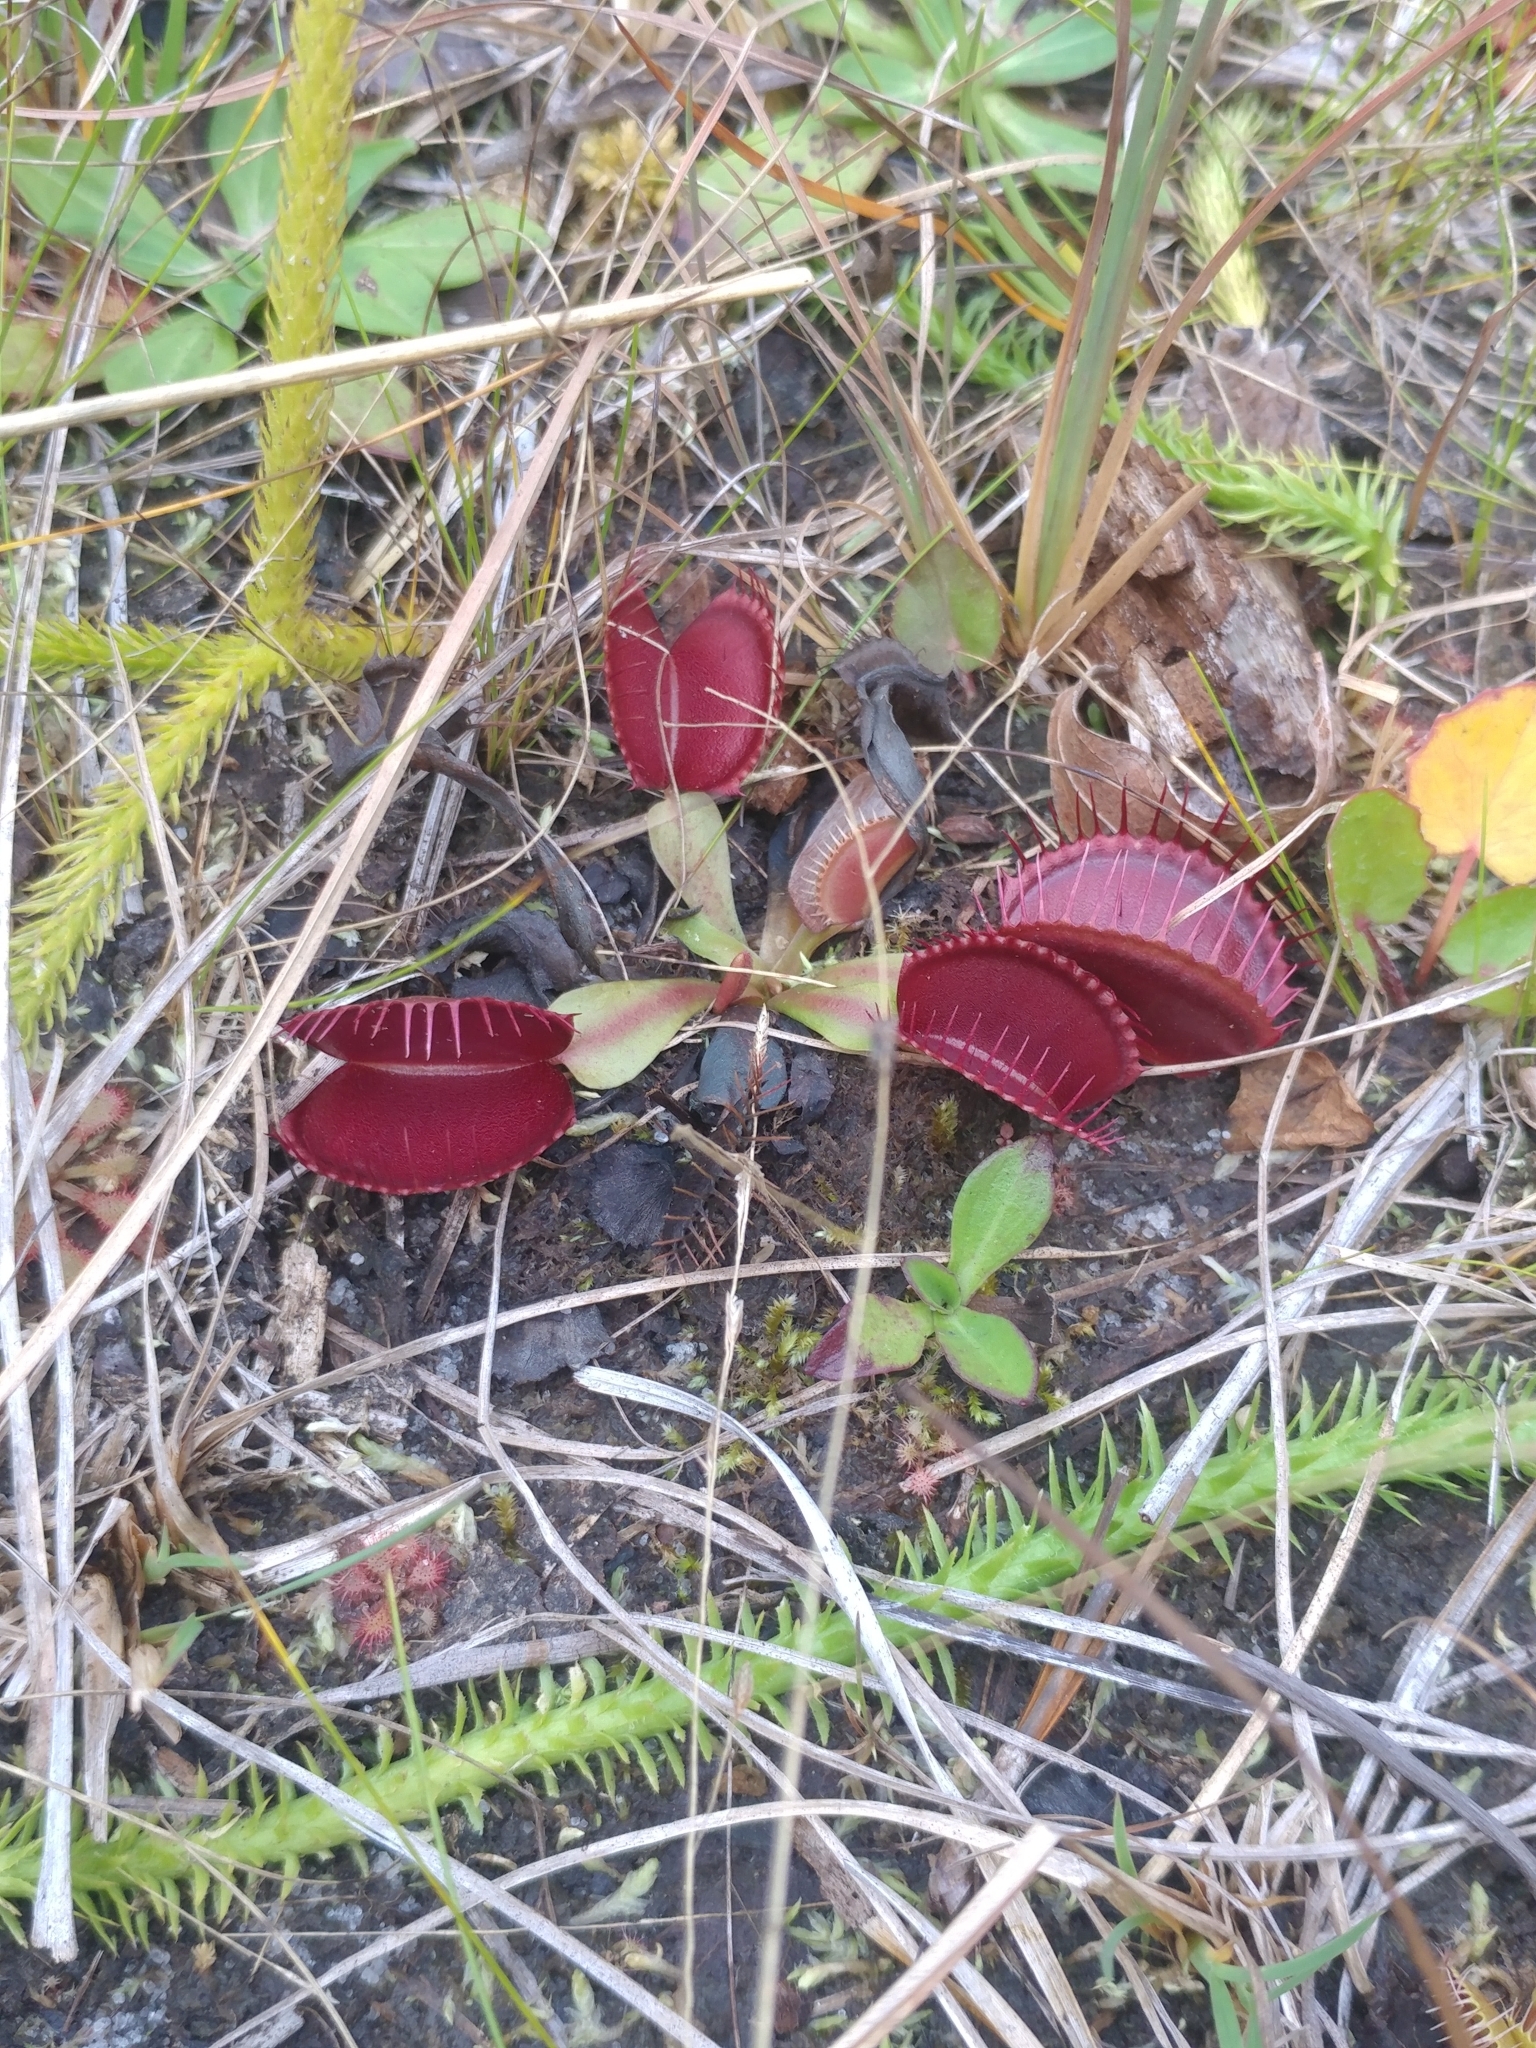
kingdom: Plantae
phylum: Tracheophyta
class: Magnoliopsida
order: Caryophyllales
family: Droseraceae
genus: Dionaea
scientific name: Dionaea muscipula
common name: Venus flytrap
